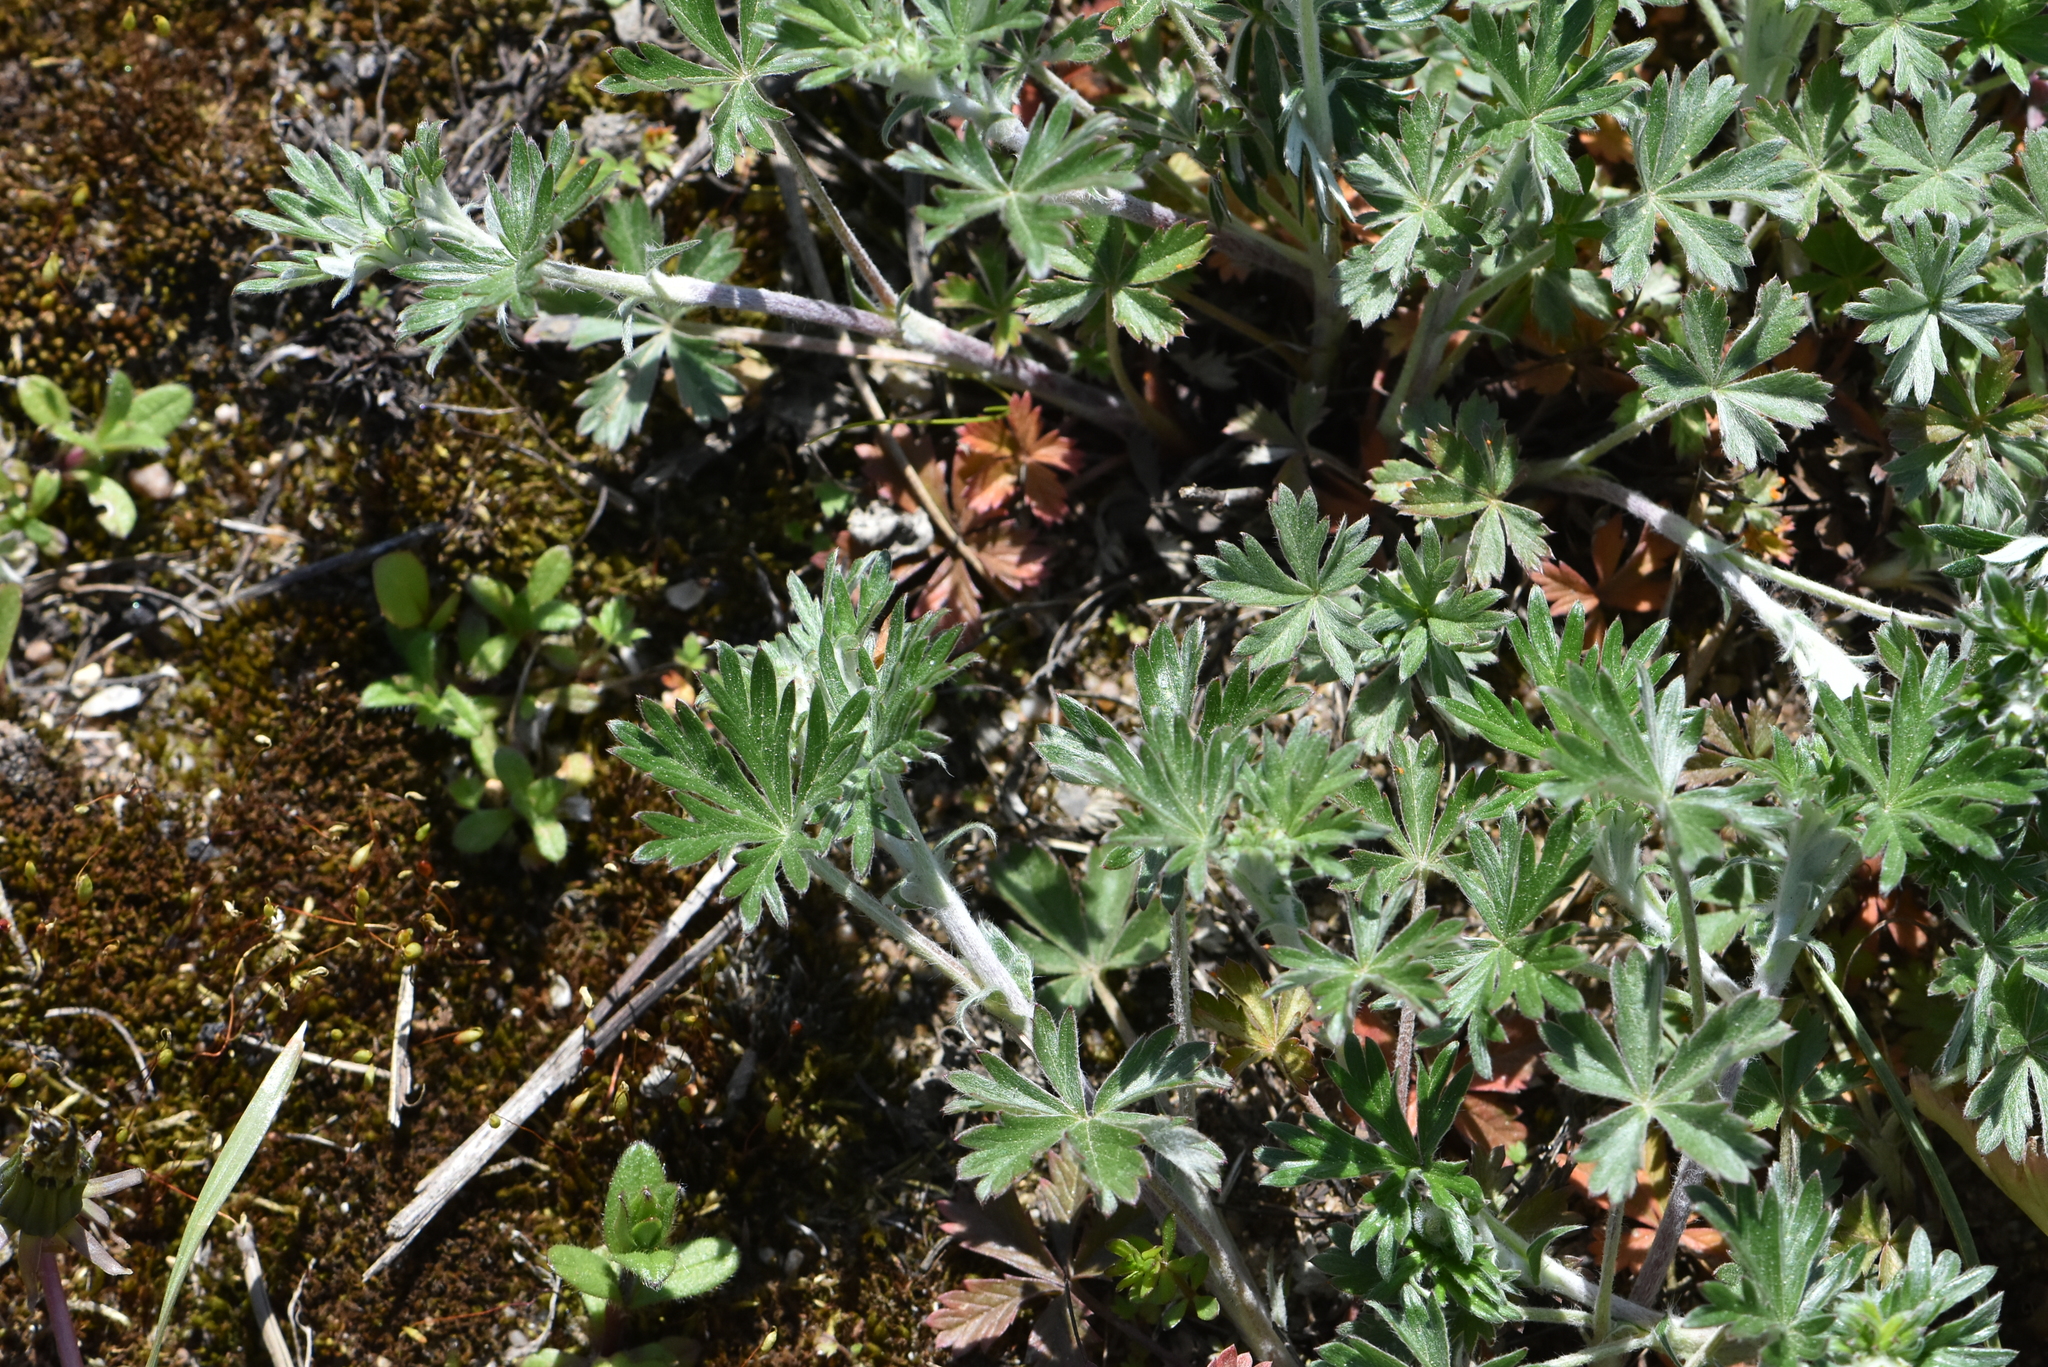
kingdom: Plantae
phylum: Tracheophyta
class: Magnoliopsida
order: Rosales
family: Rosaceae
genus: Potentilla
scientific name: Potentilla argentea
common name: Hoary cinquefoil
